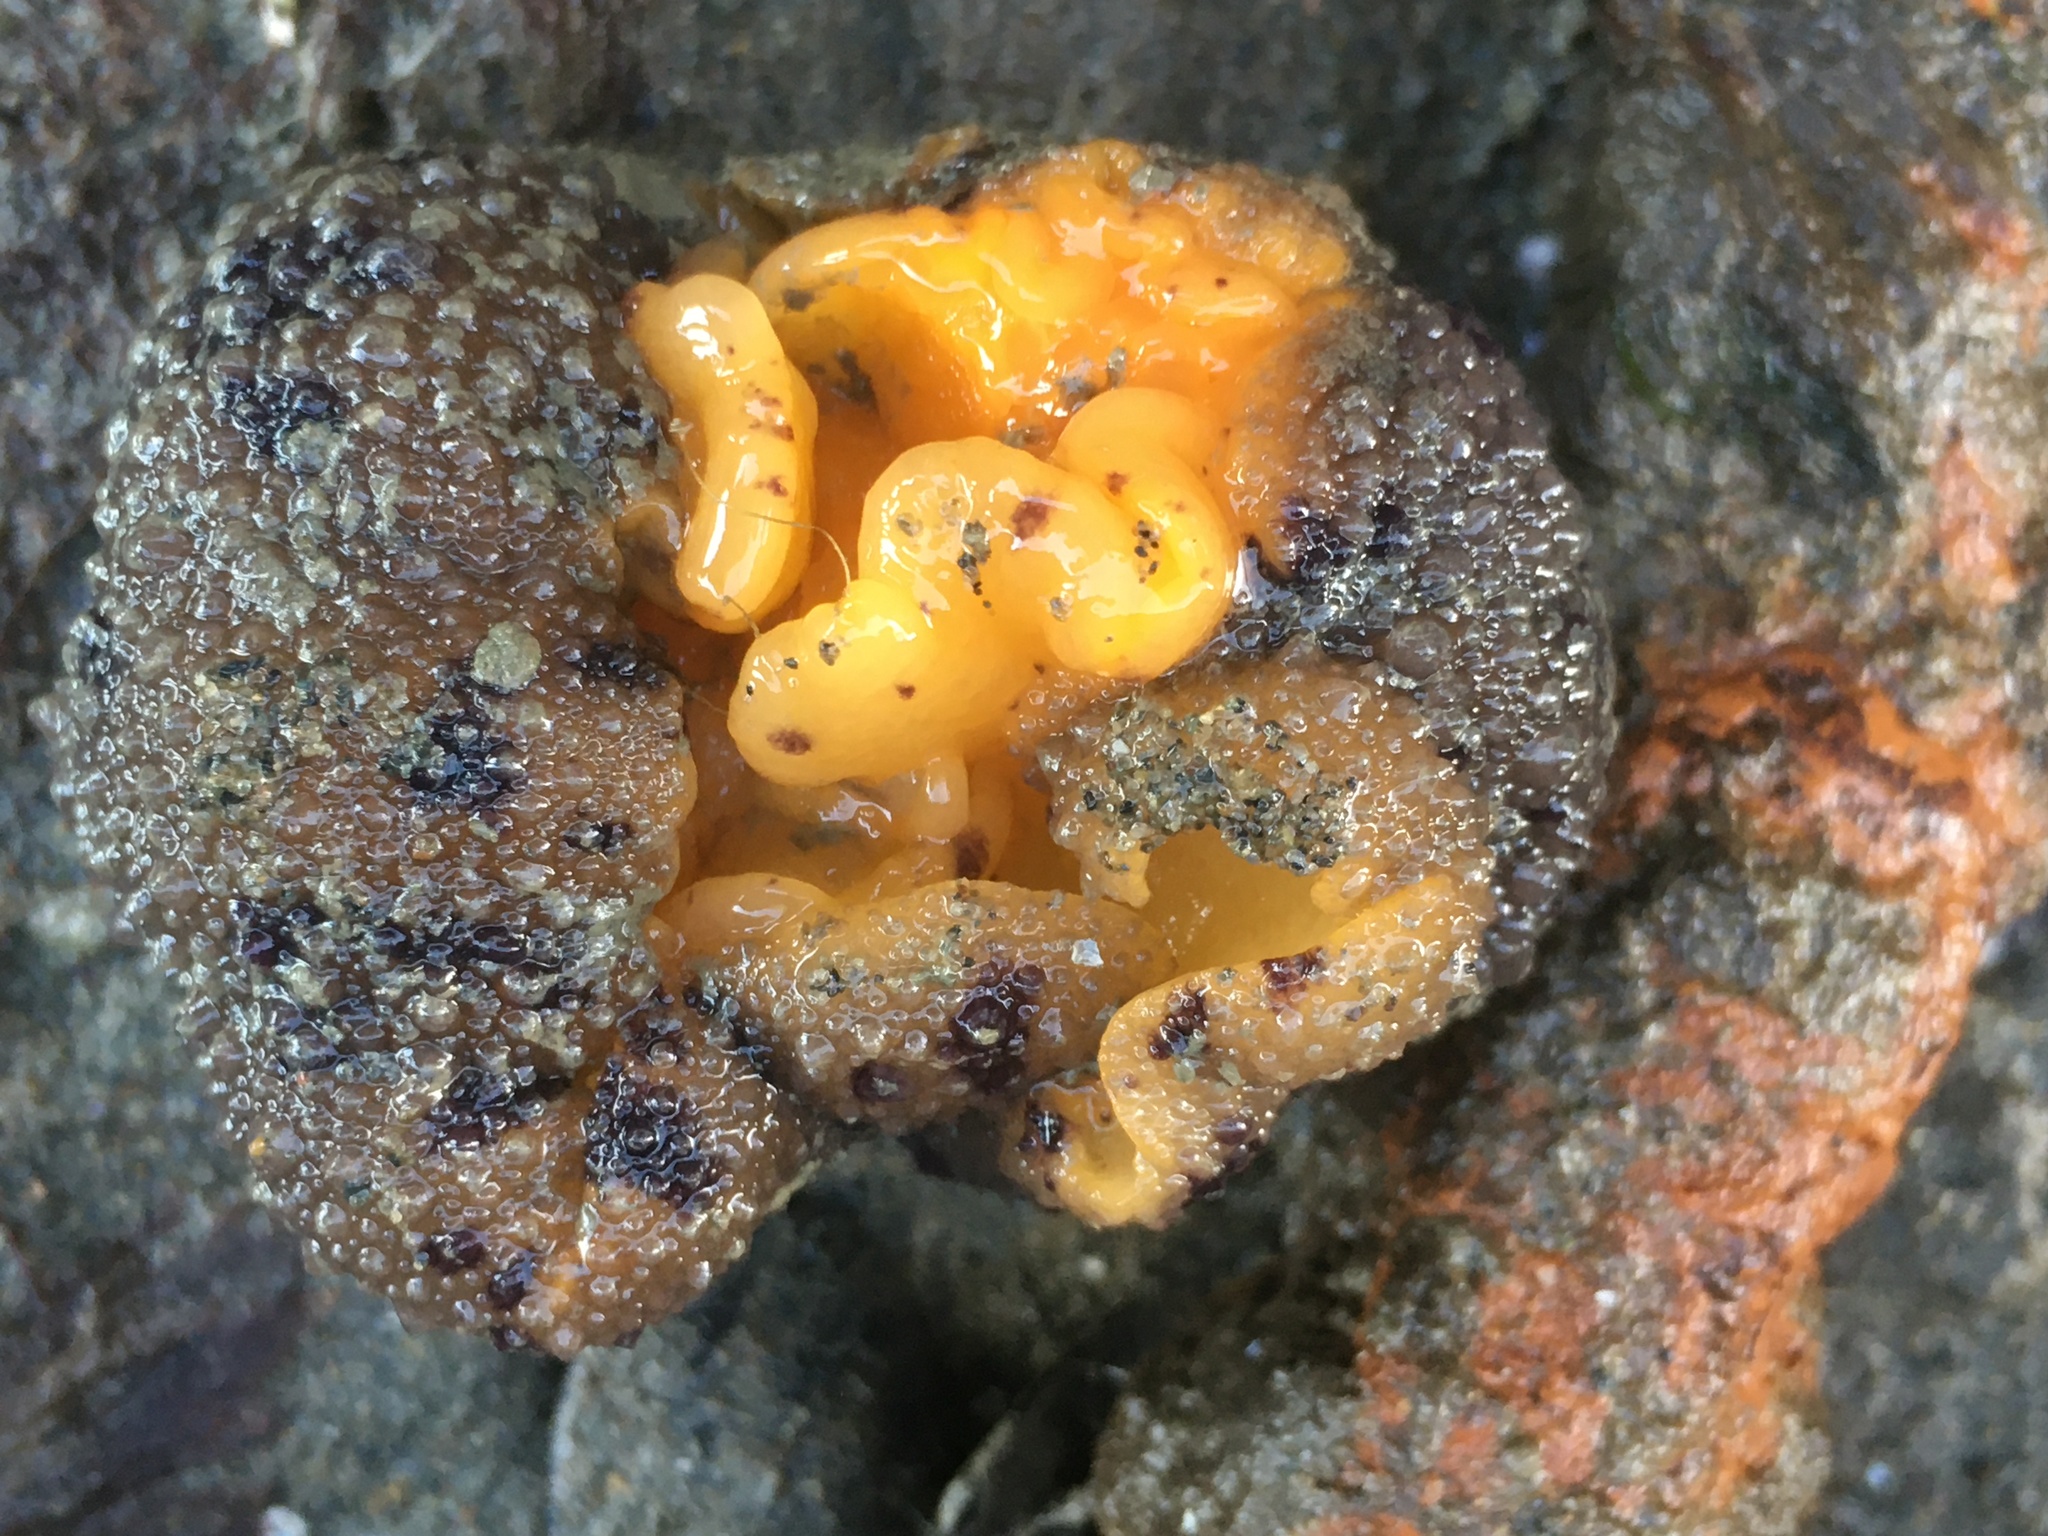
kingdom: Animalia
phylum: Mollusca
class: Gastropoda
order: Nudibranchia
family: Dorididae
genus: Doris
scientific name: Doris montereyensis
